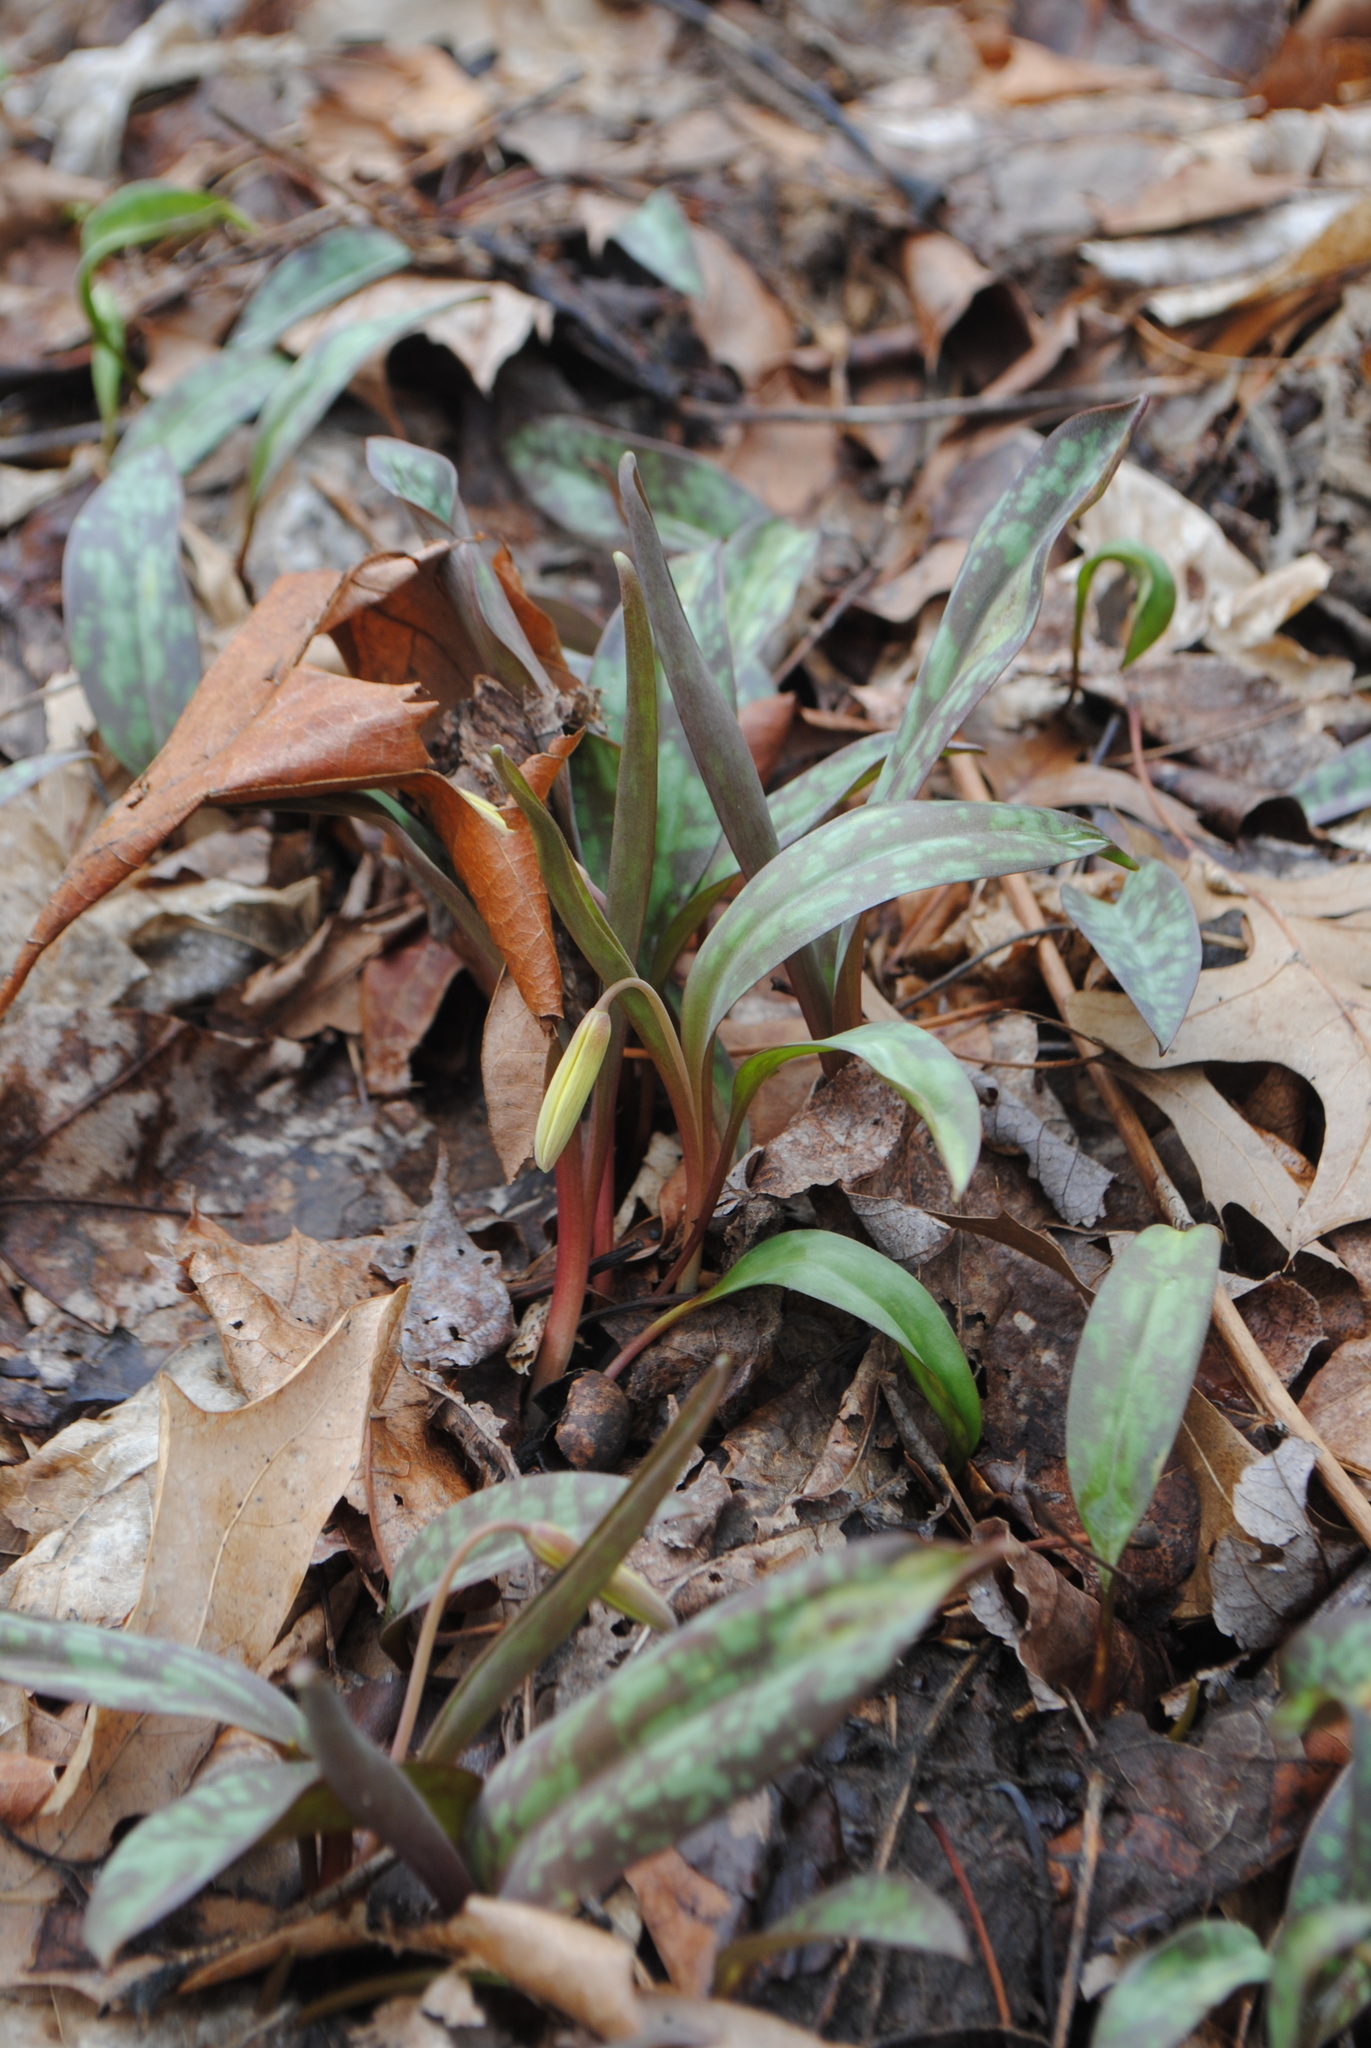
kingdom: Plantae
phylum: Tracheophyta
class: Liliopsida
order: Liliales
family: Liliaceae
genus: Erythronium
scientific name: Erythronium americanum
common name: Yellow adder's-tongue
